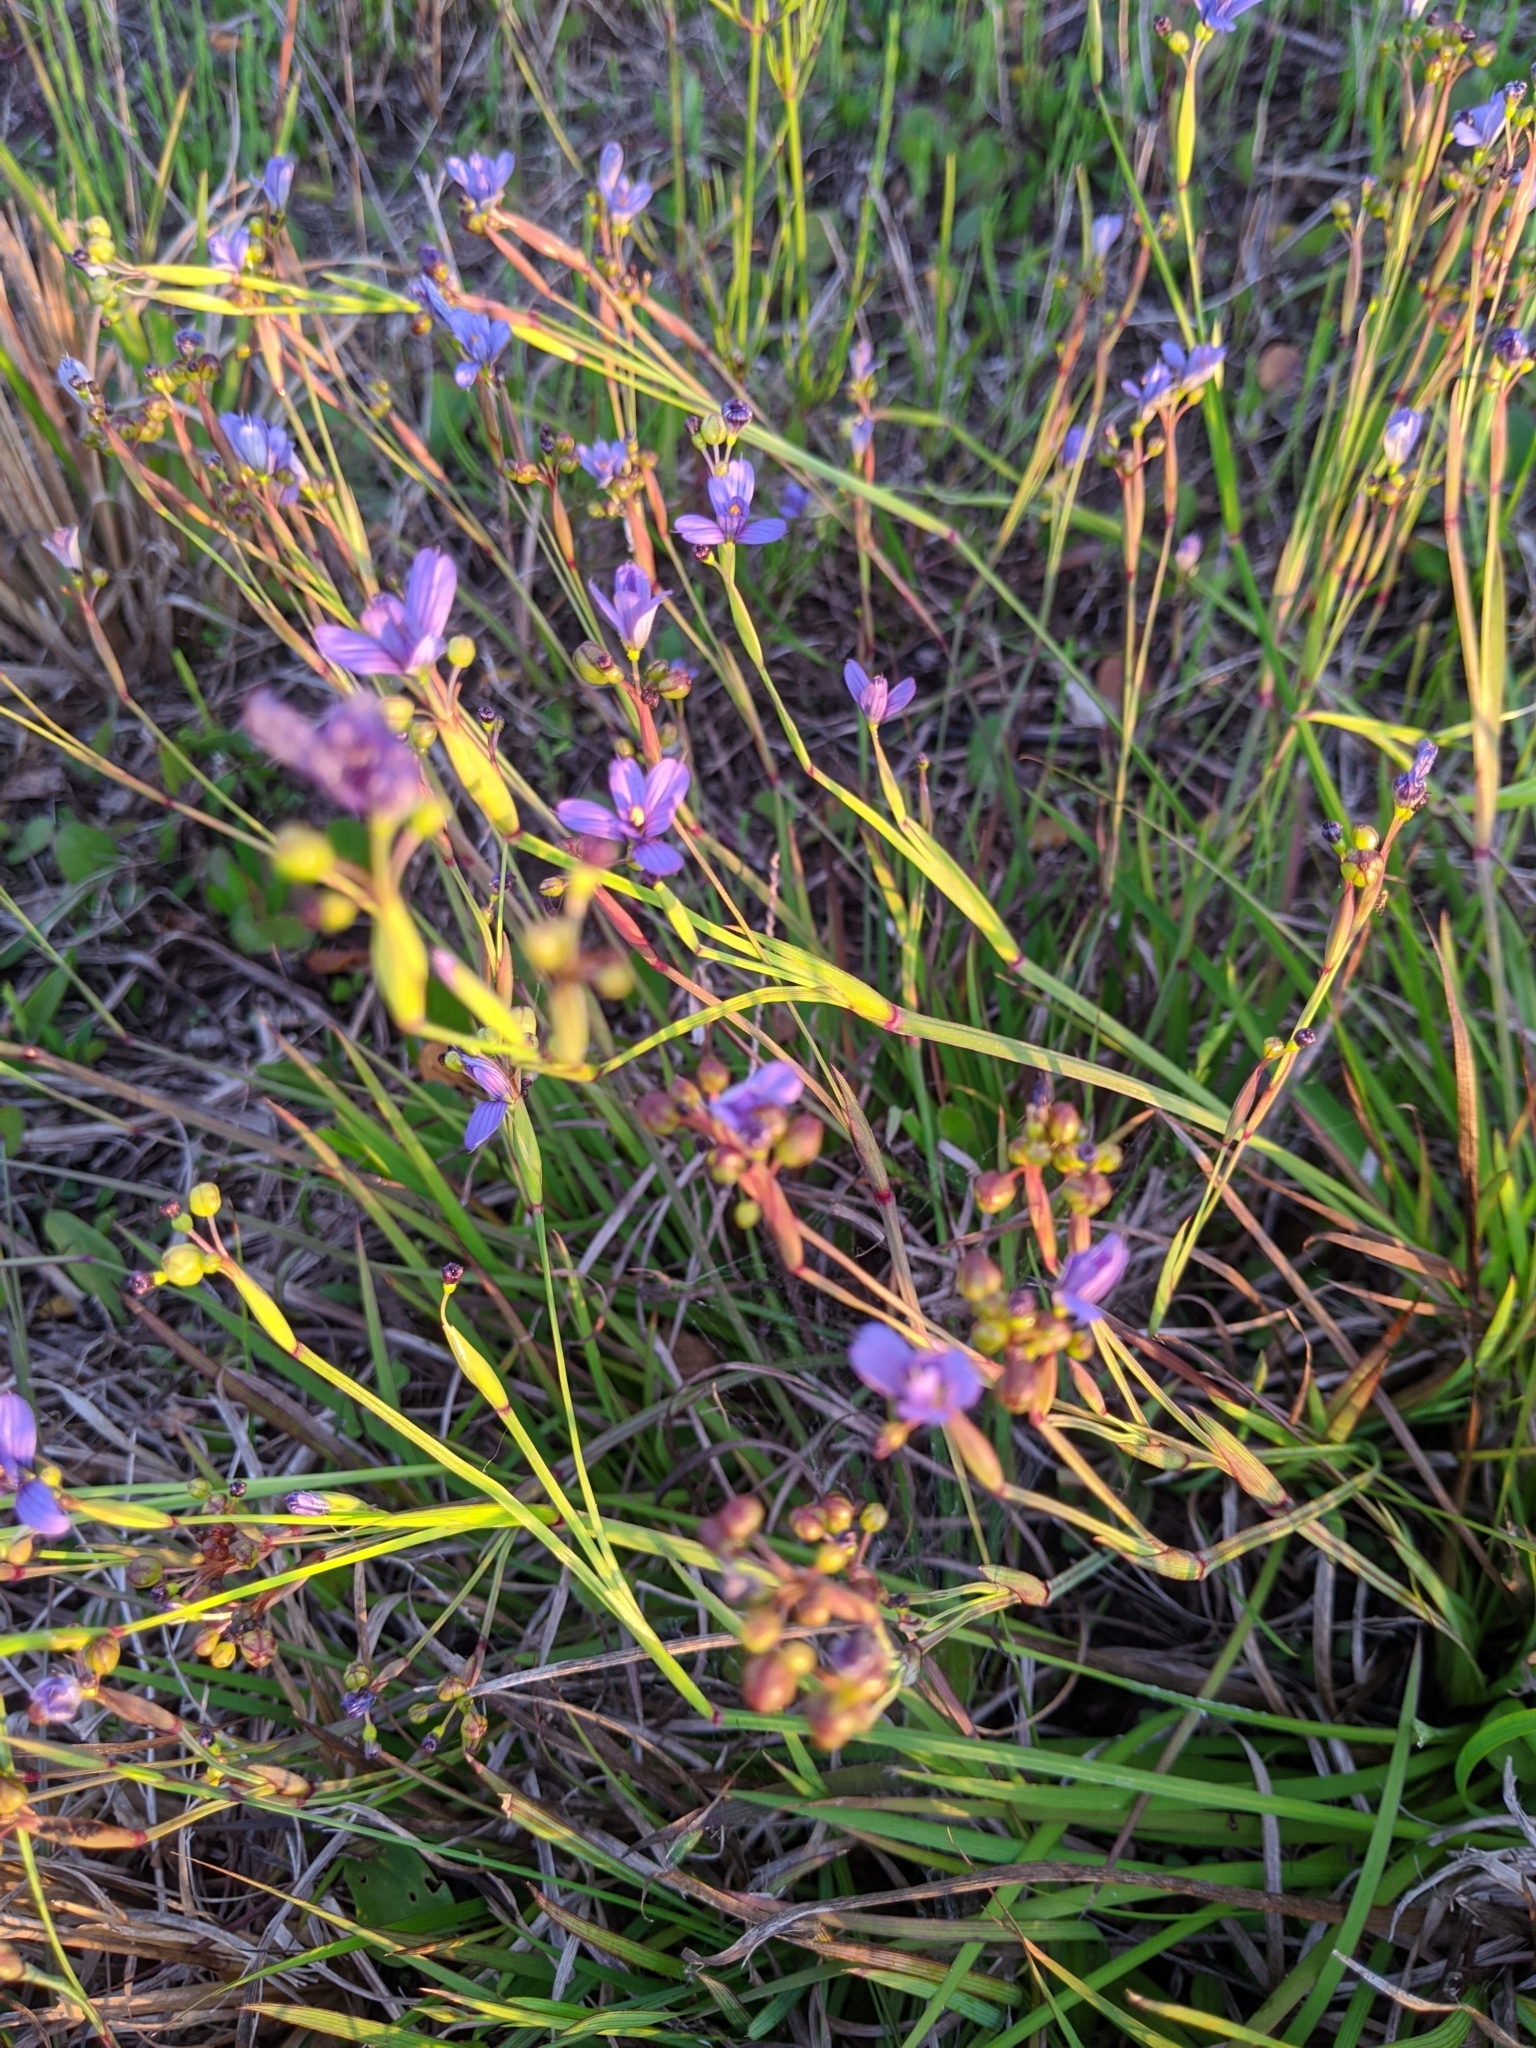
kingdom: Plantae
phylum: Tracheophyta
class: Liliopsida
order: Asparagales
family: Iridaceae
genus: Sisyrinchium
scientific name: Sisyrinchium nashii
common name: Nash's blue-eyed-grass
